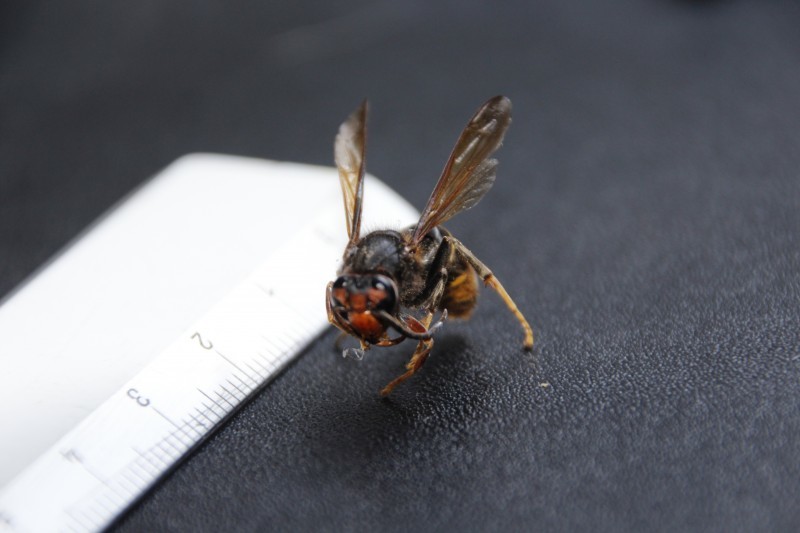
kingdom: Animalia
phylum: Arthropoda
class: Insecta
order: Hymenoptera
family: Vespidae
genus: Vespa
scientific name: Vespa velutina
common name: Asian hornet
